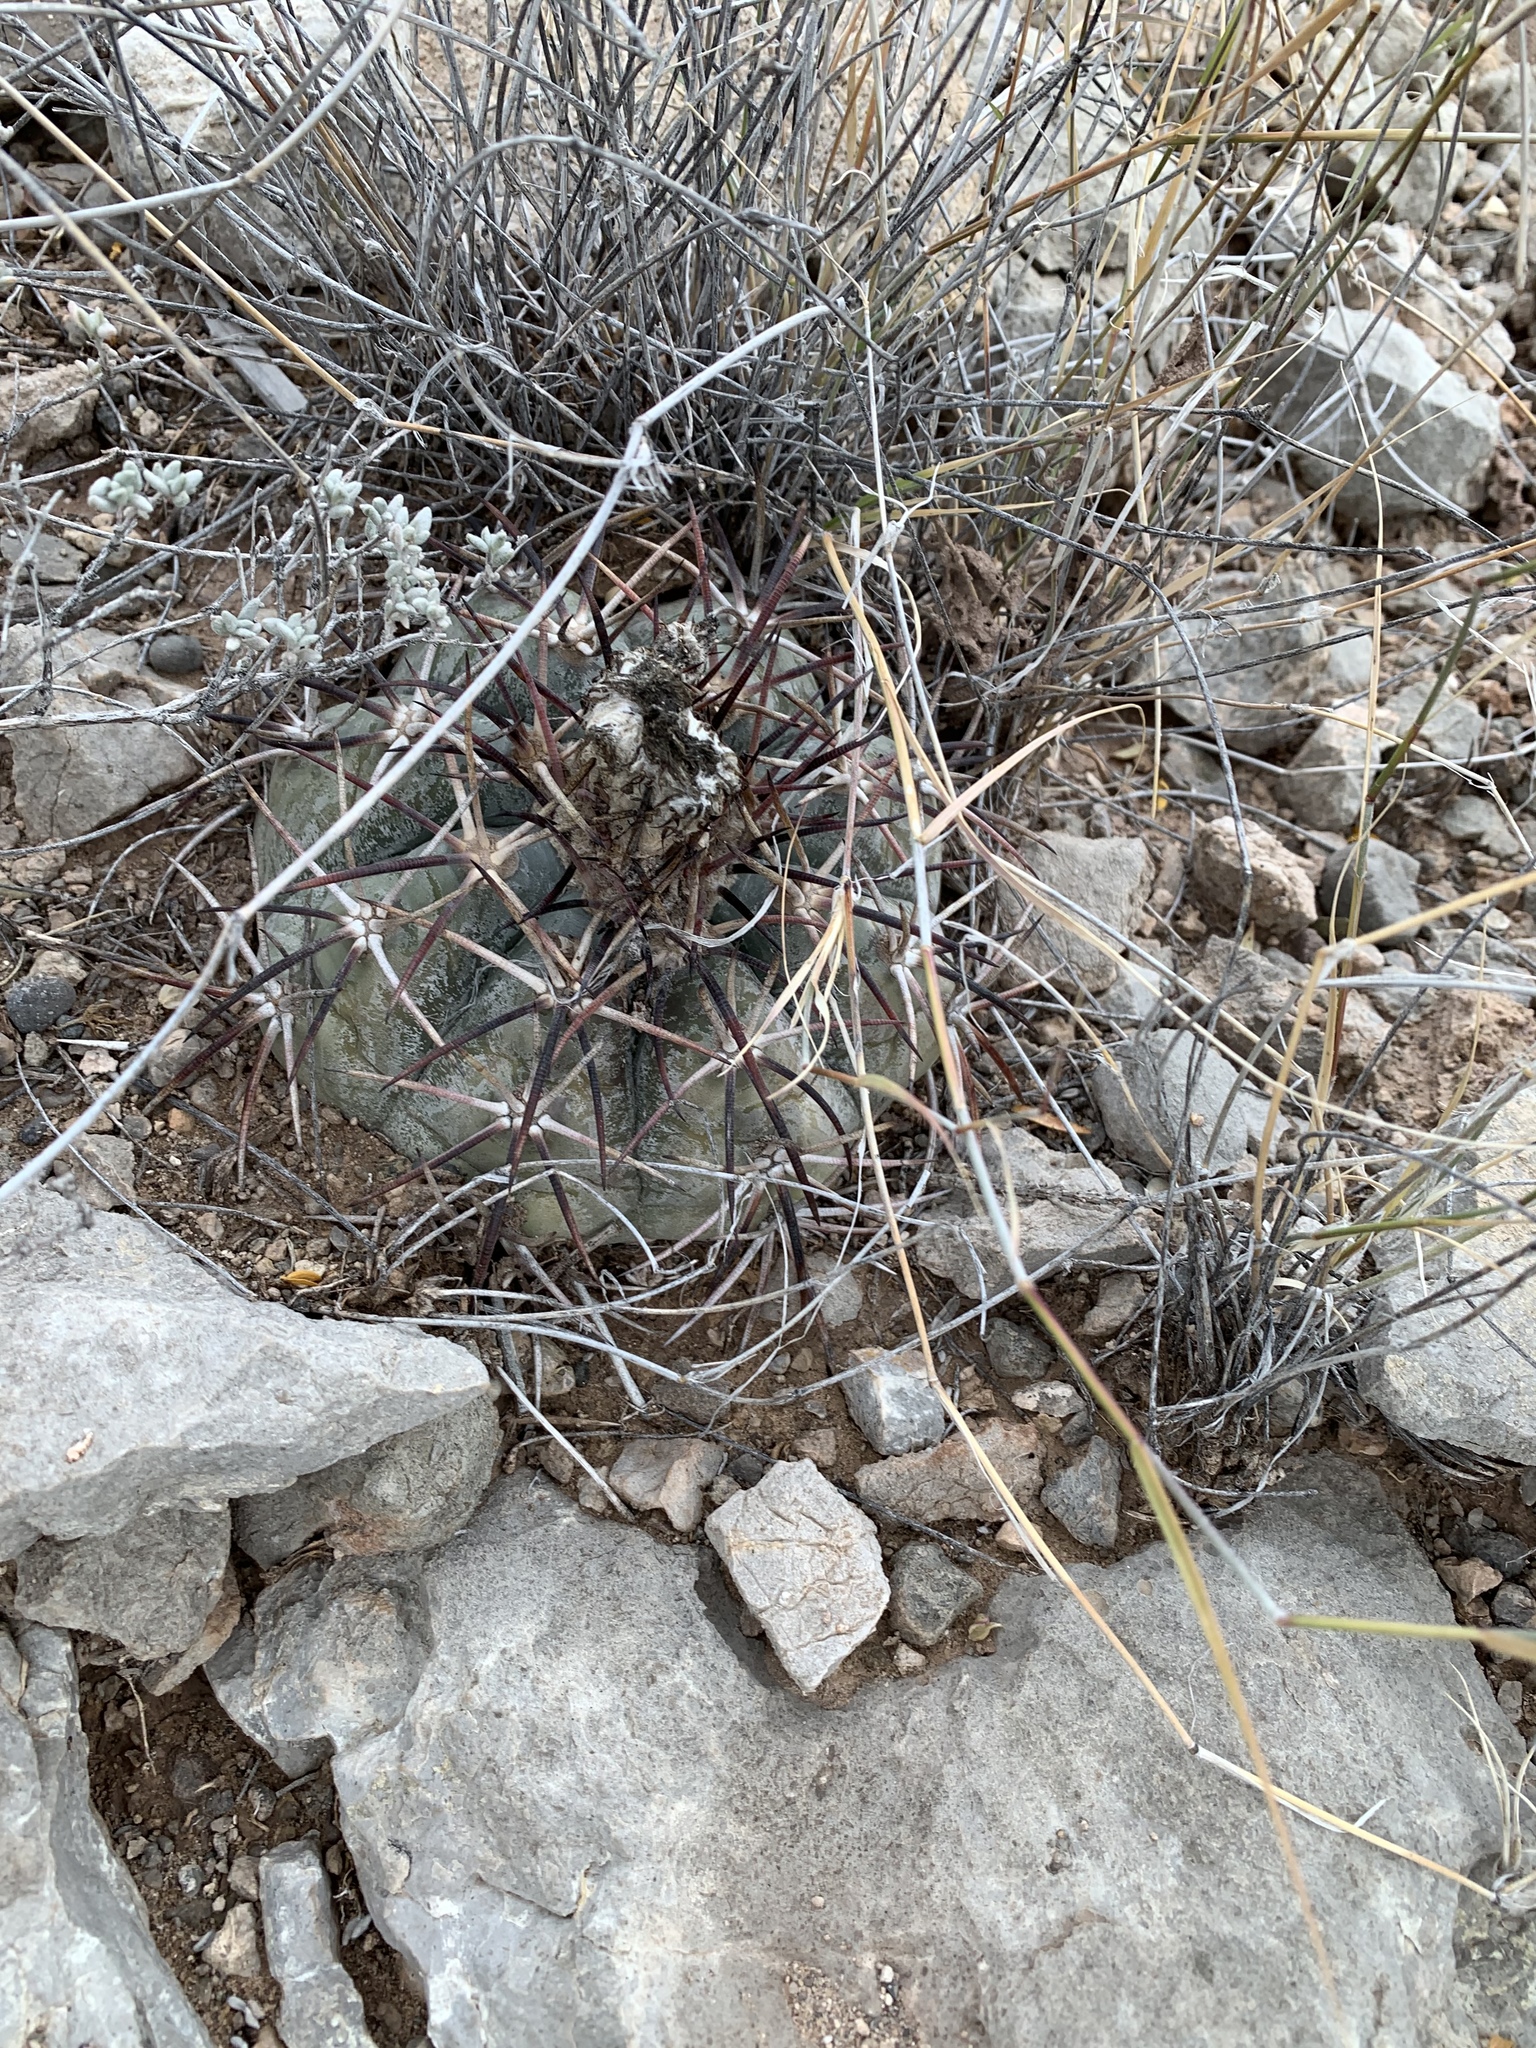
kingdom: Plantae
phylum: Tracheophyta
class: Magnoliopsida
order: Caryophyllales
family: Cactaceae
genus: Echinocactus
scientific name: Echinocactus horizonthalonius
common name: Devilshead
